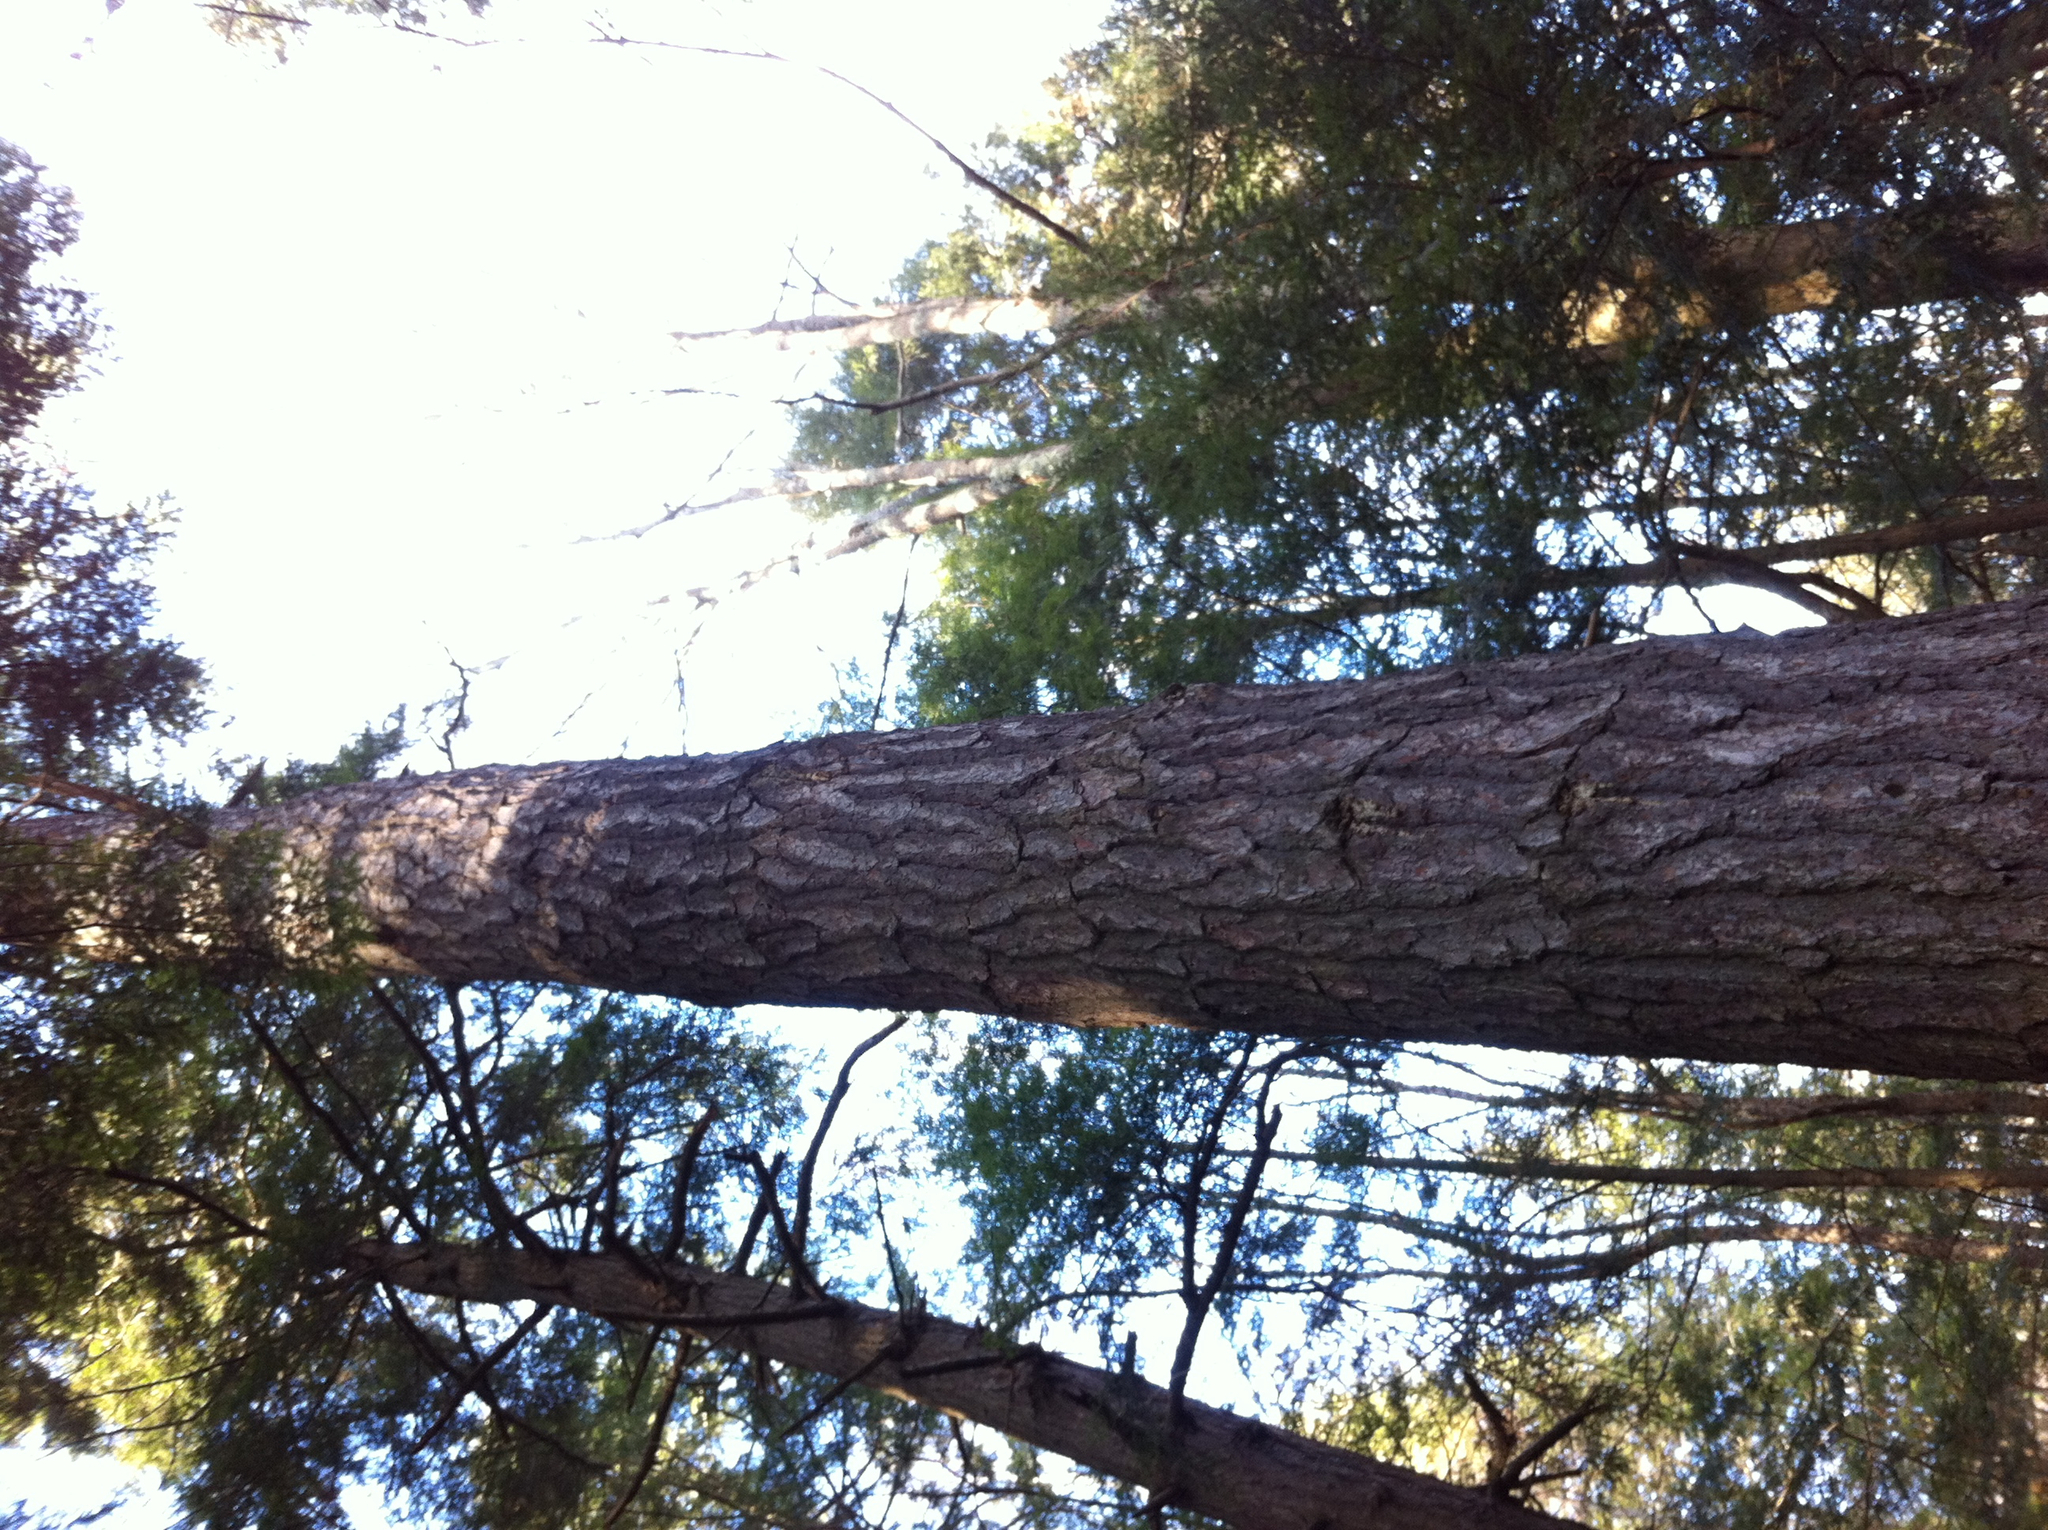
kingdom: Plantae
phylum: Tracheophyta
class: Pinopsida
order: Pinales
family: Pinaceae
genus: Pinus
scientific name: Pinus strobus
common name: Weymouth pine
